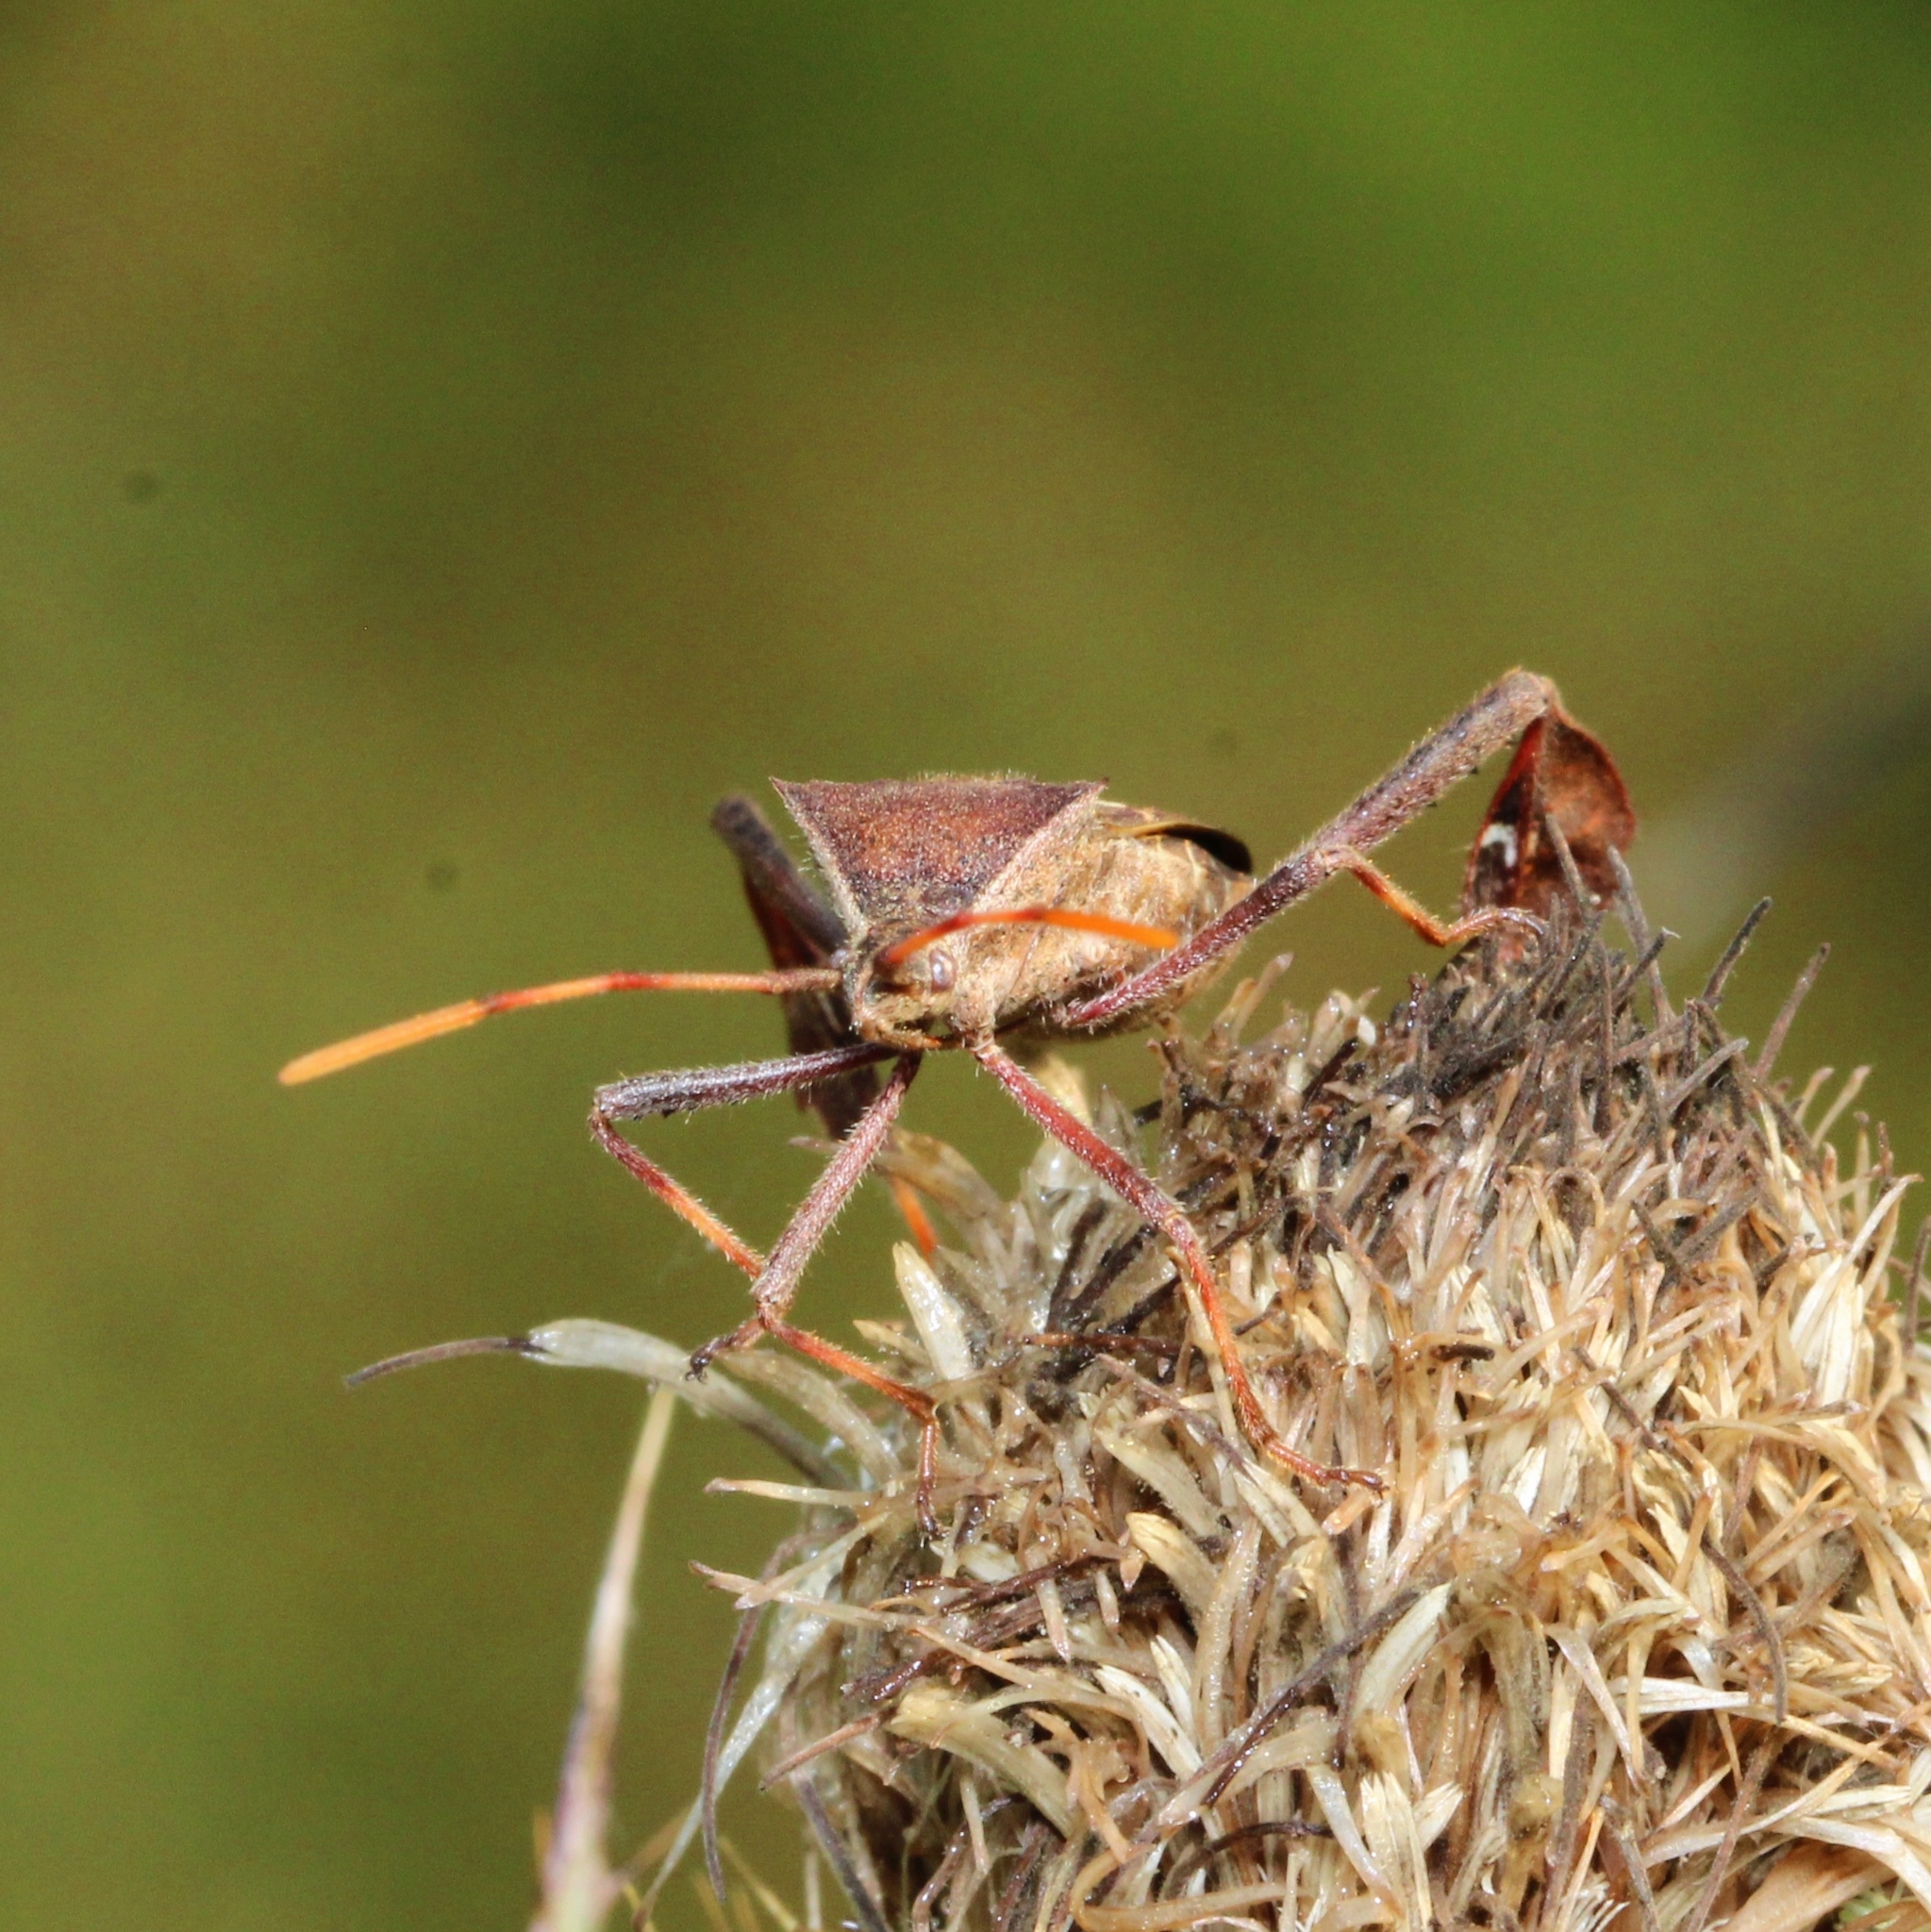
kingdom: Animalia
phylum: Arthropoda
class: Insecta
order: Hemiptera
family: Coreidae
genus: Leptoglossus
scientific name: Leptoglossus phyllopus
